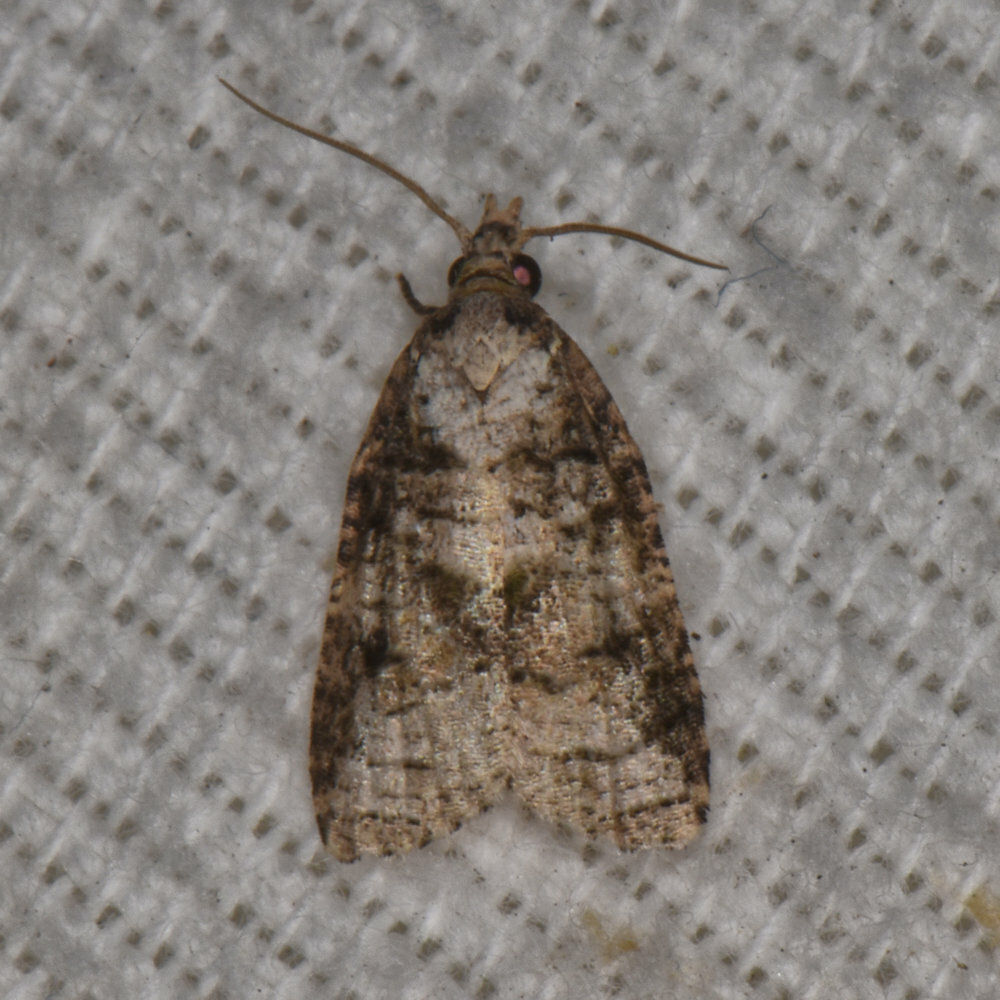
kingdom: Animalia
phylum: Arthropoda
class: Insecta
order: Lepidoptera
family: Tortricidae
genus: Platynota
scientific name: Platynota exasperatana
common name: Exasperating platynota moth
